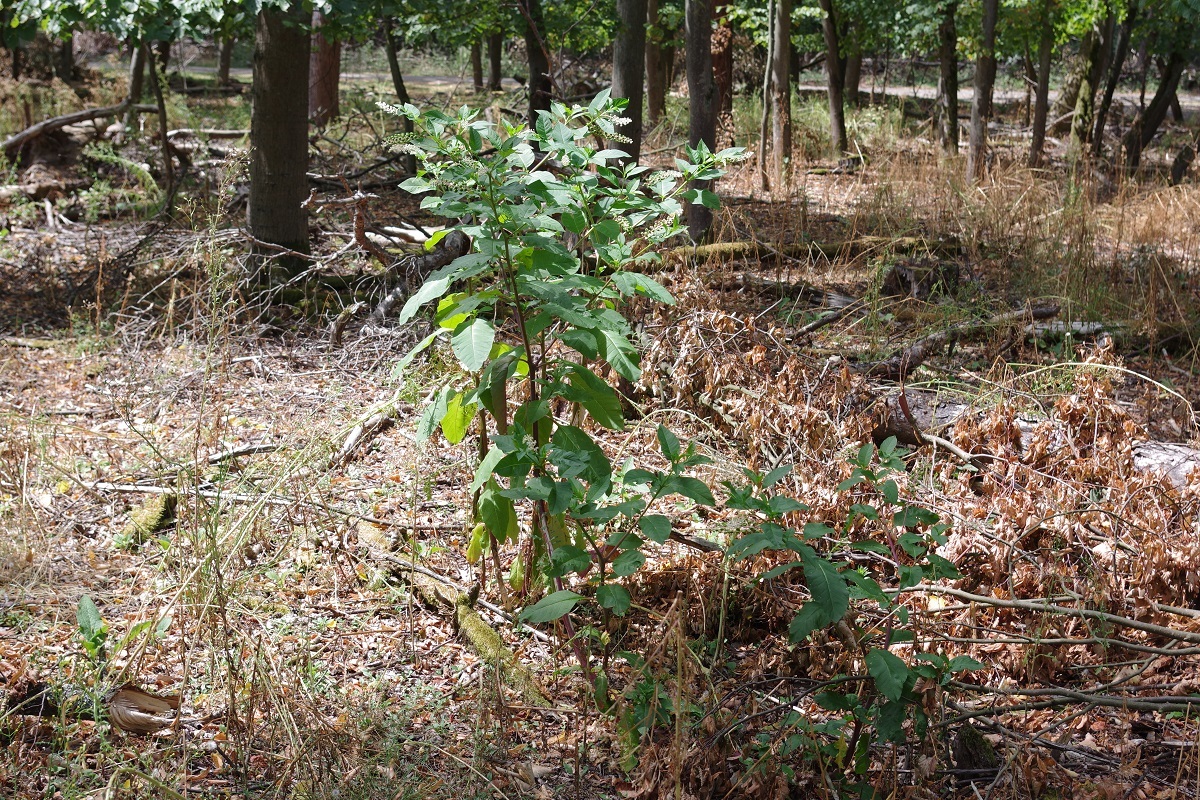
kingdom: Plantae
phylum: Tracheophyta
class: Magnoliopsida
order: Caryophyllales
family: Phytolaccaceae
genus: Phytolacca
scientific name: Phytolacca americana
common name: American pokeweed
